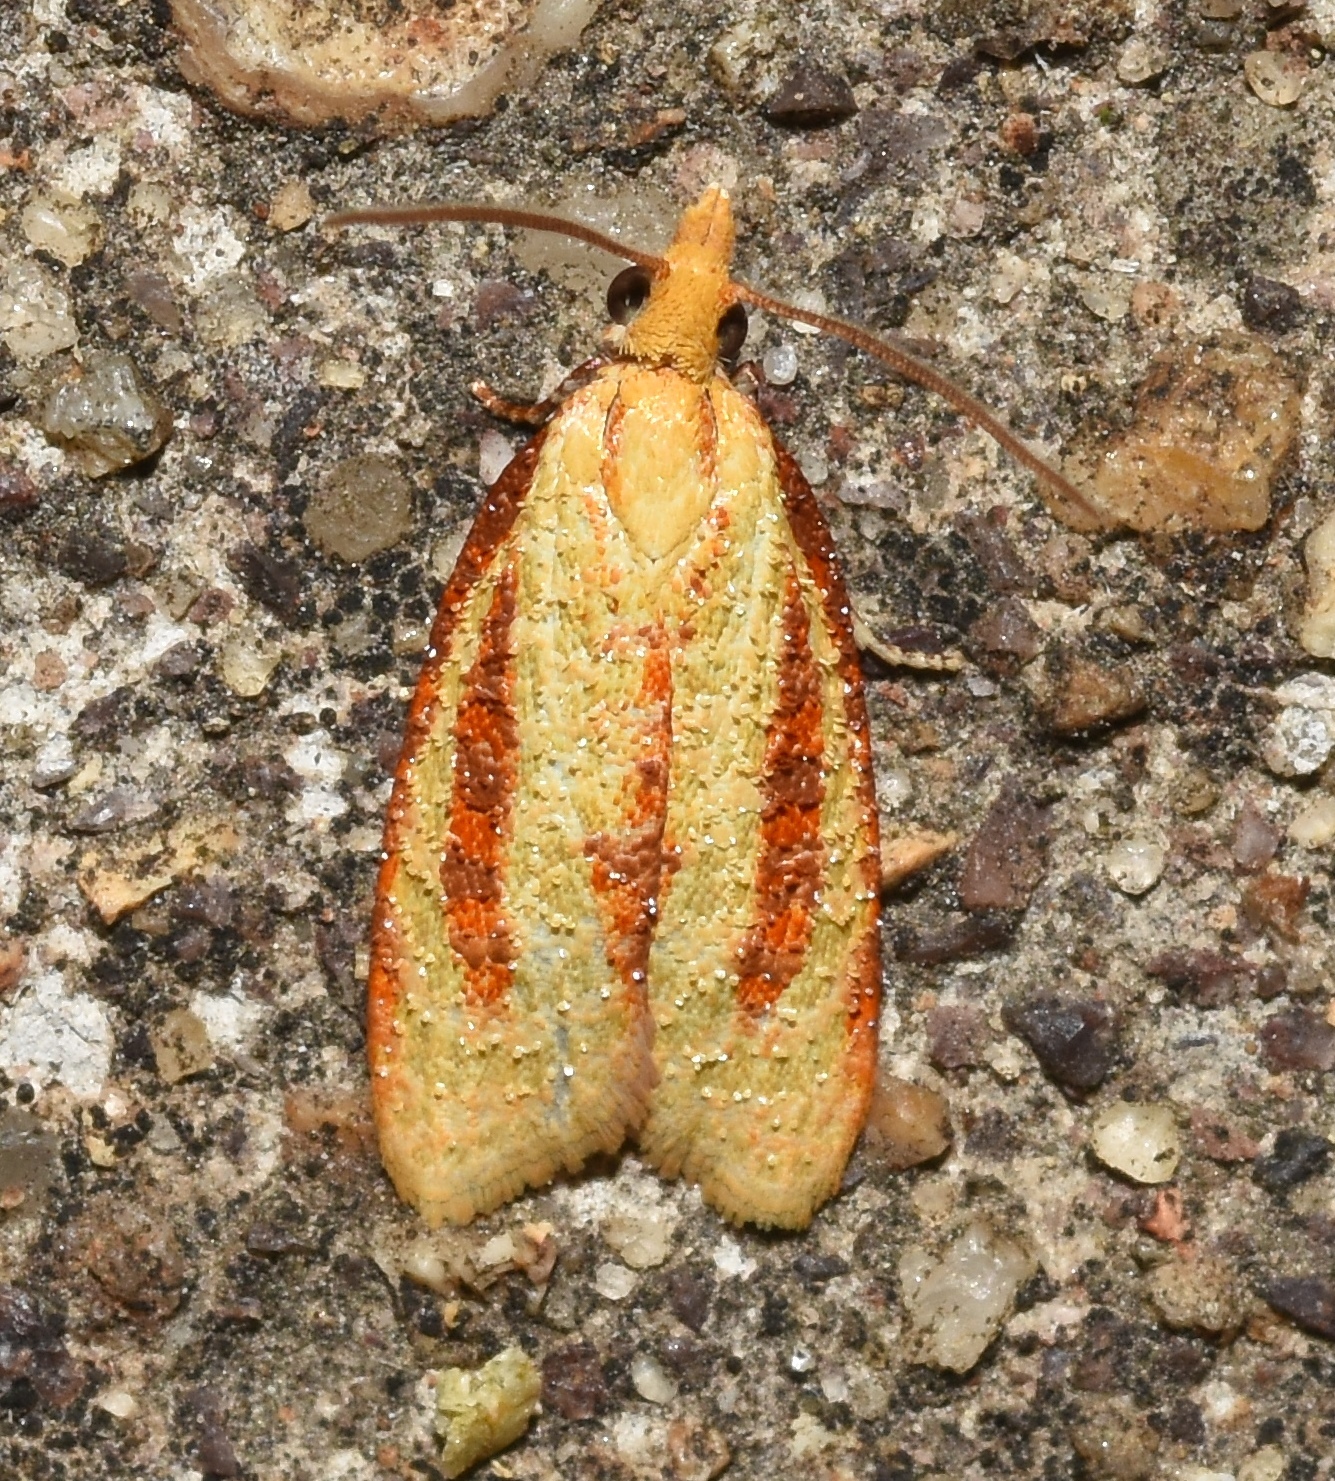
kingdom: Animalia
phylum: Arthropoda
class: Insecta
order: Lepidoptera
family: Tortricidae
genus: Sparganothis
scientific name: Sparganothis bistriata
